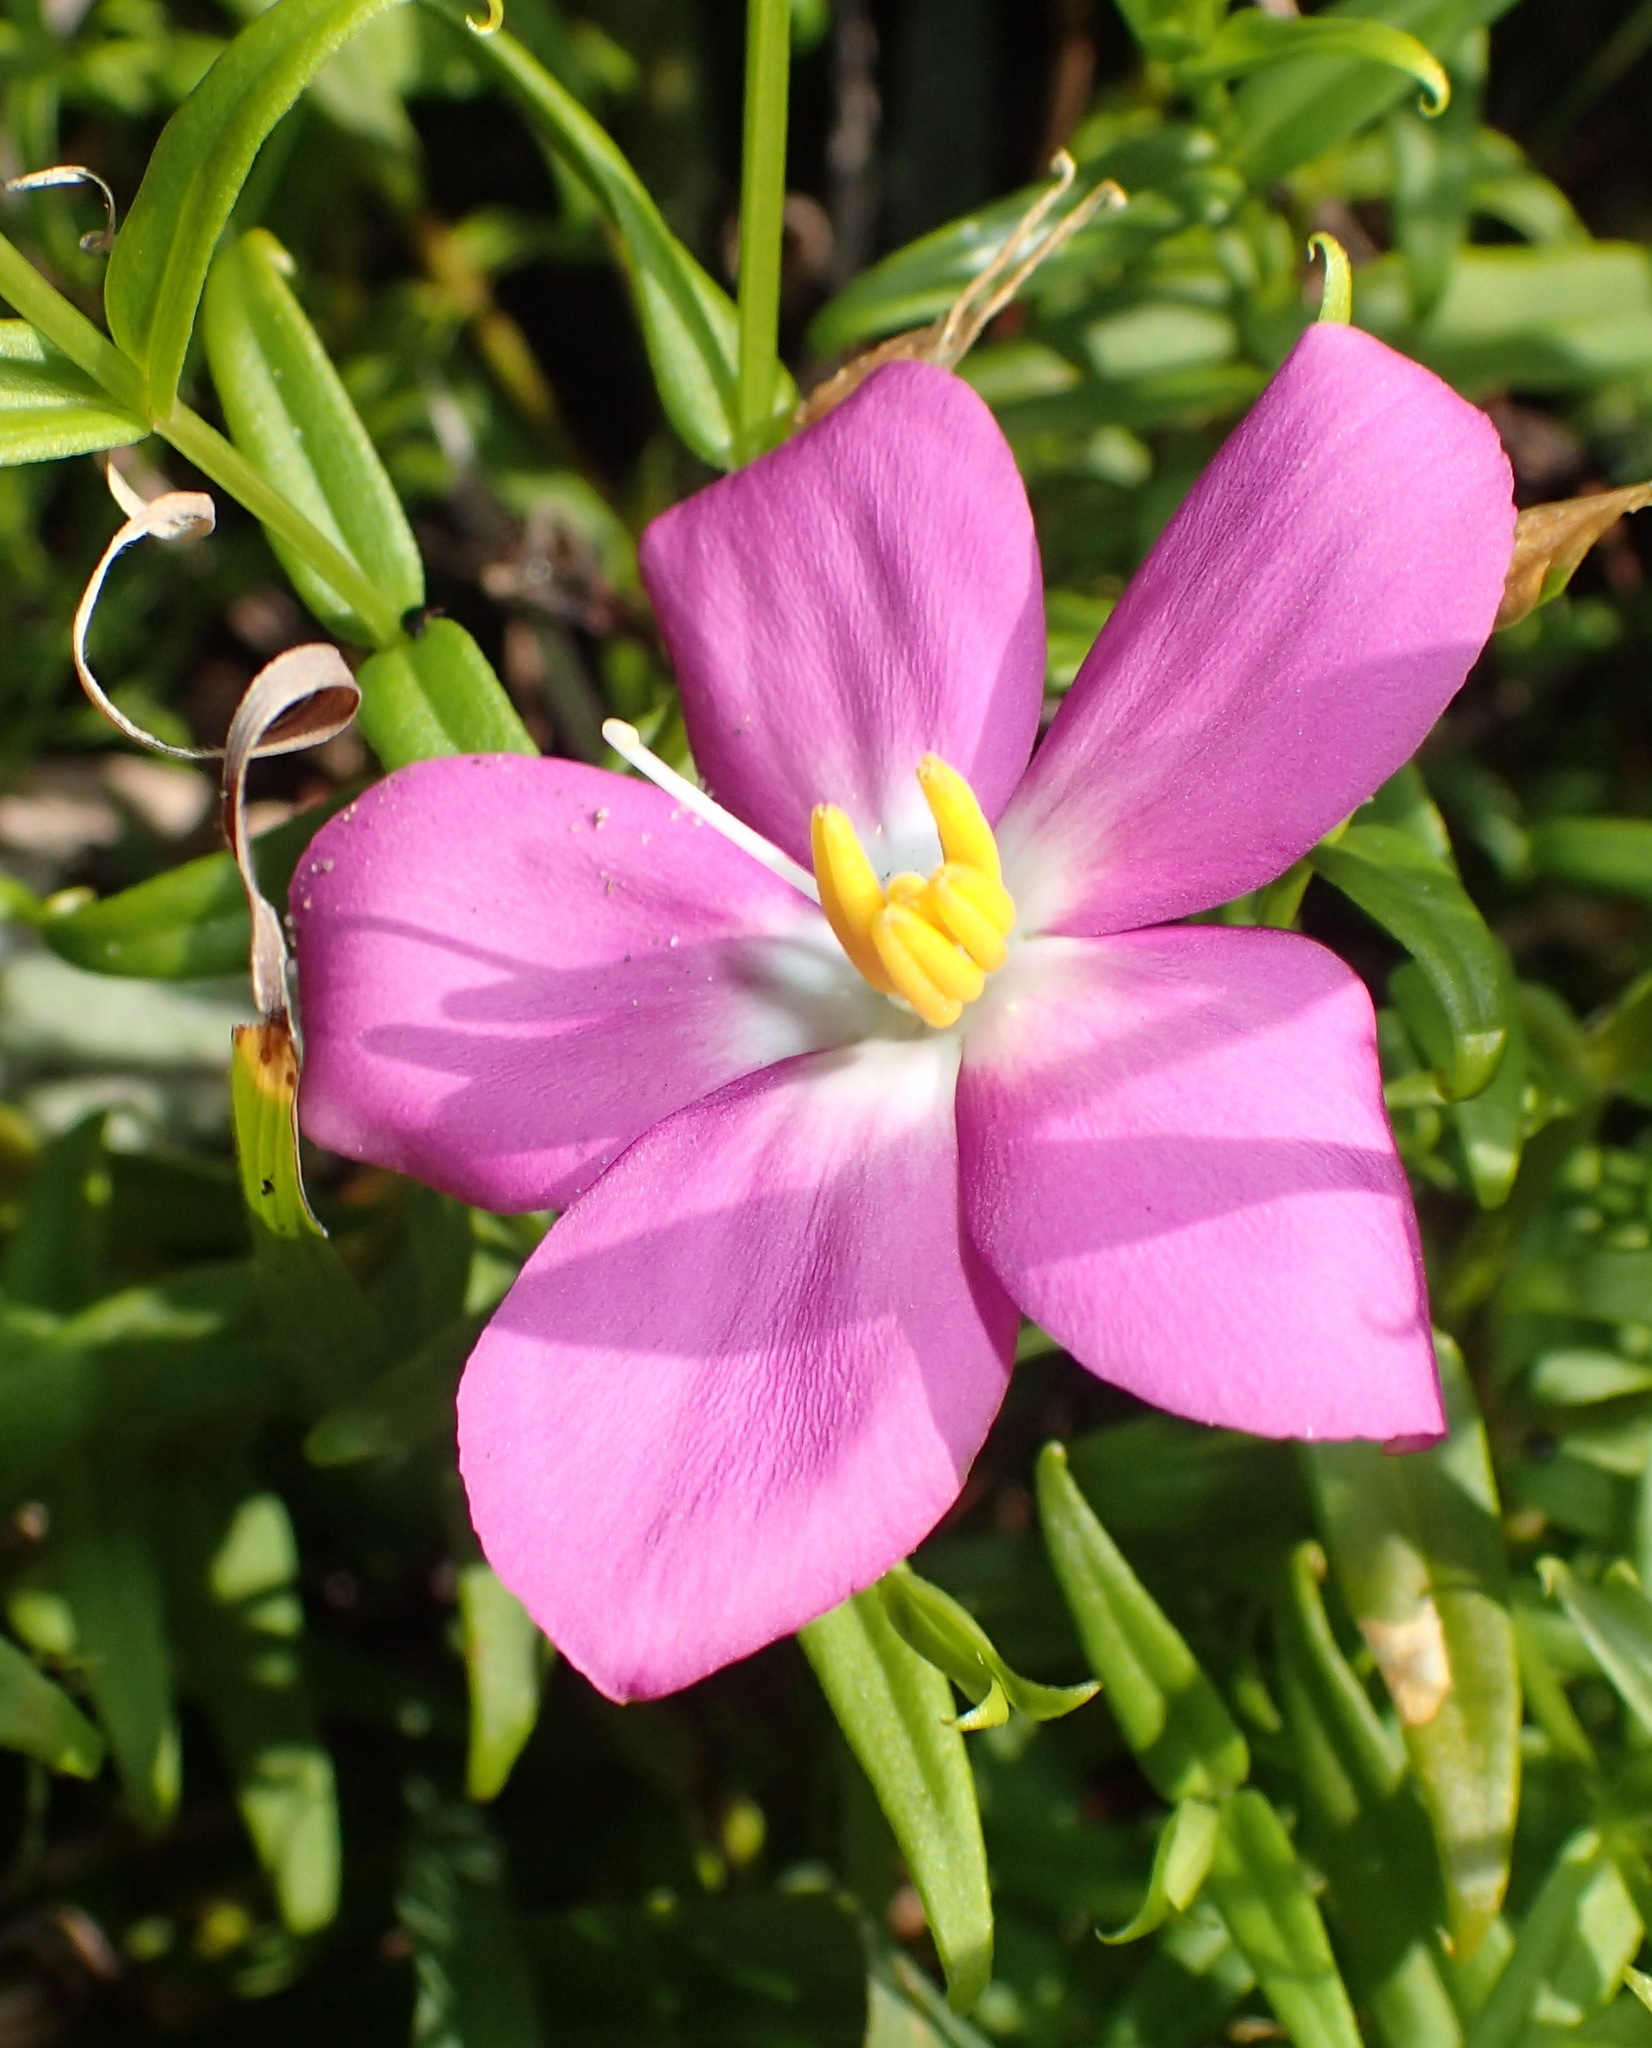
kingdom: Plantae
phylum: Tracheophyta
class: Magnoliopsida
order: Gentianales
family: Gentianaceae
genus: Chironia
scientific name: Chironia melampyrifolia
